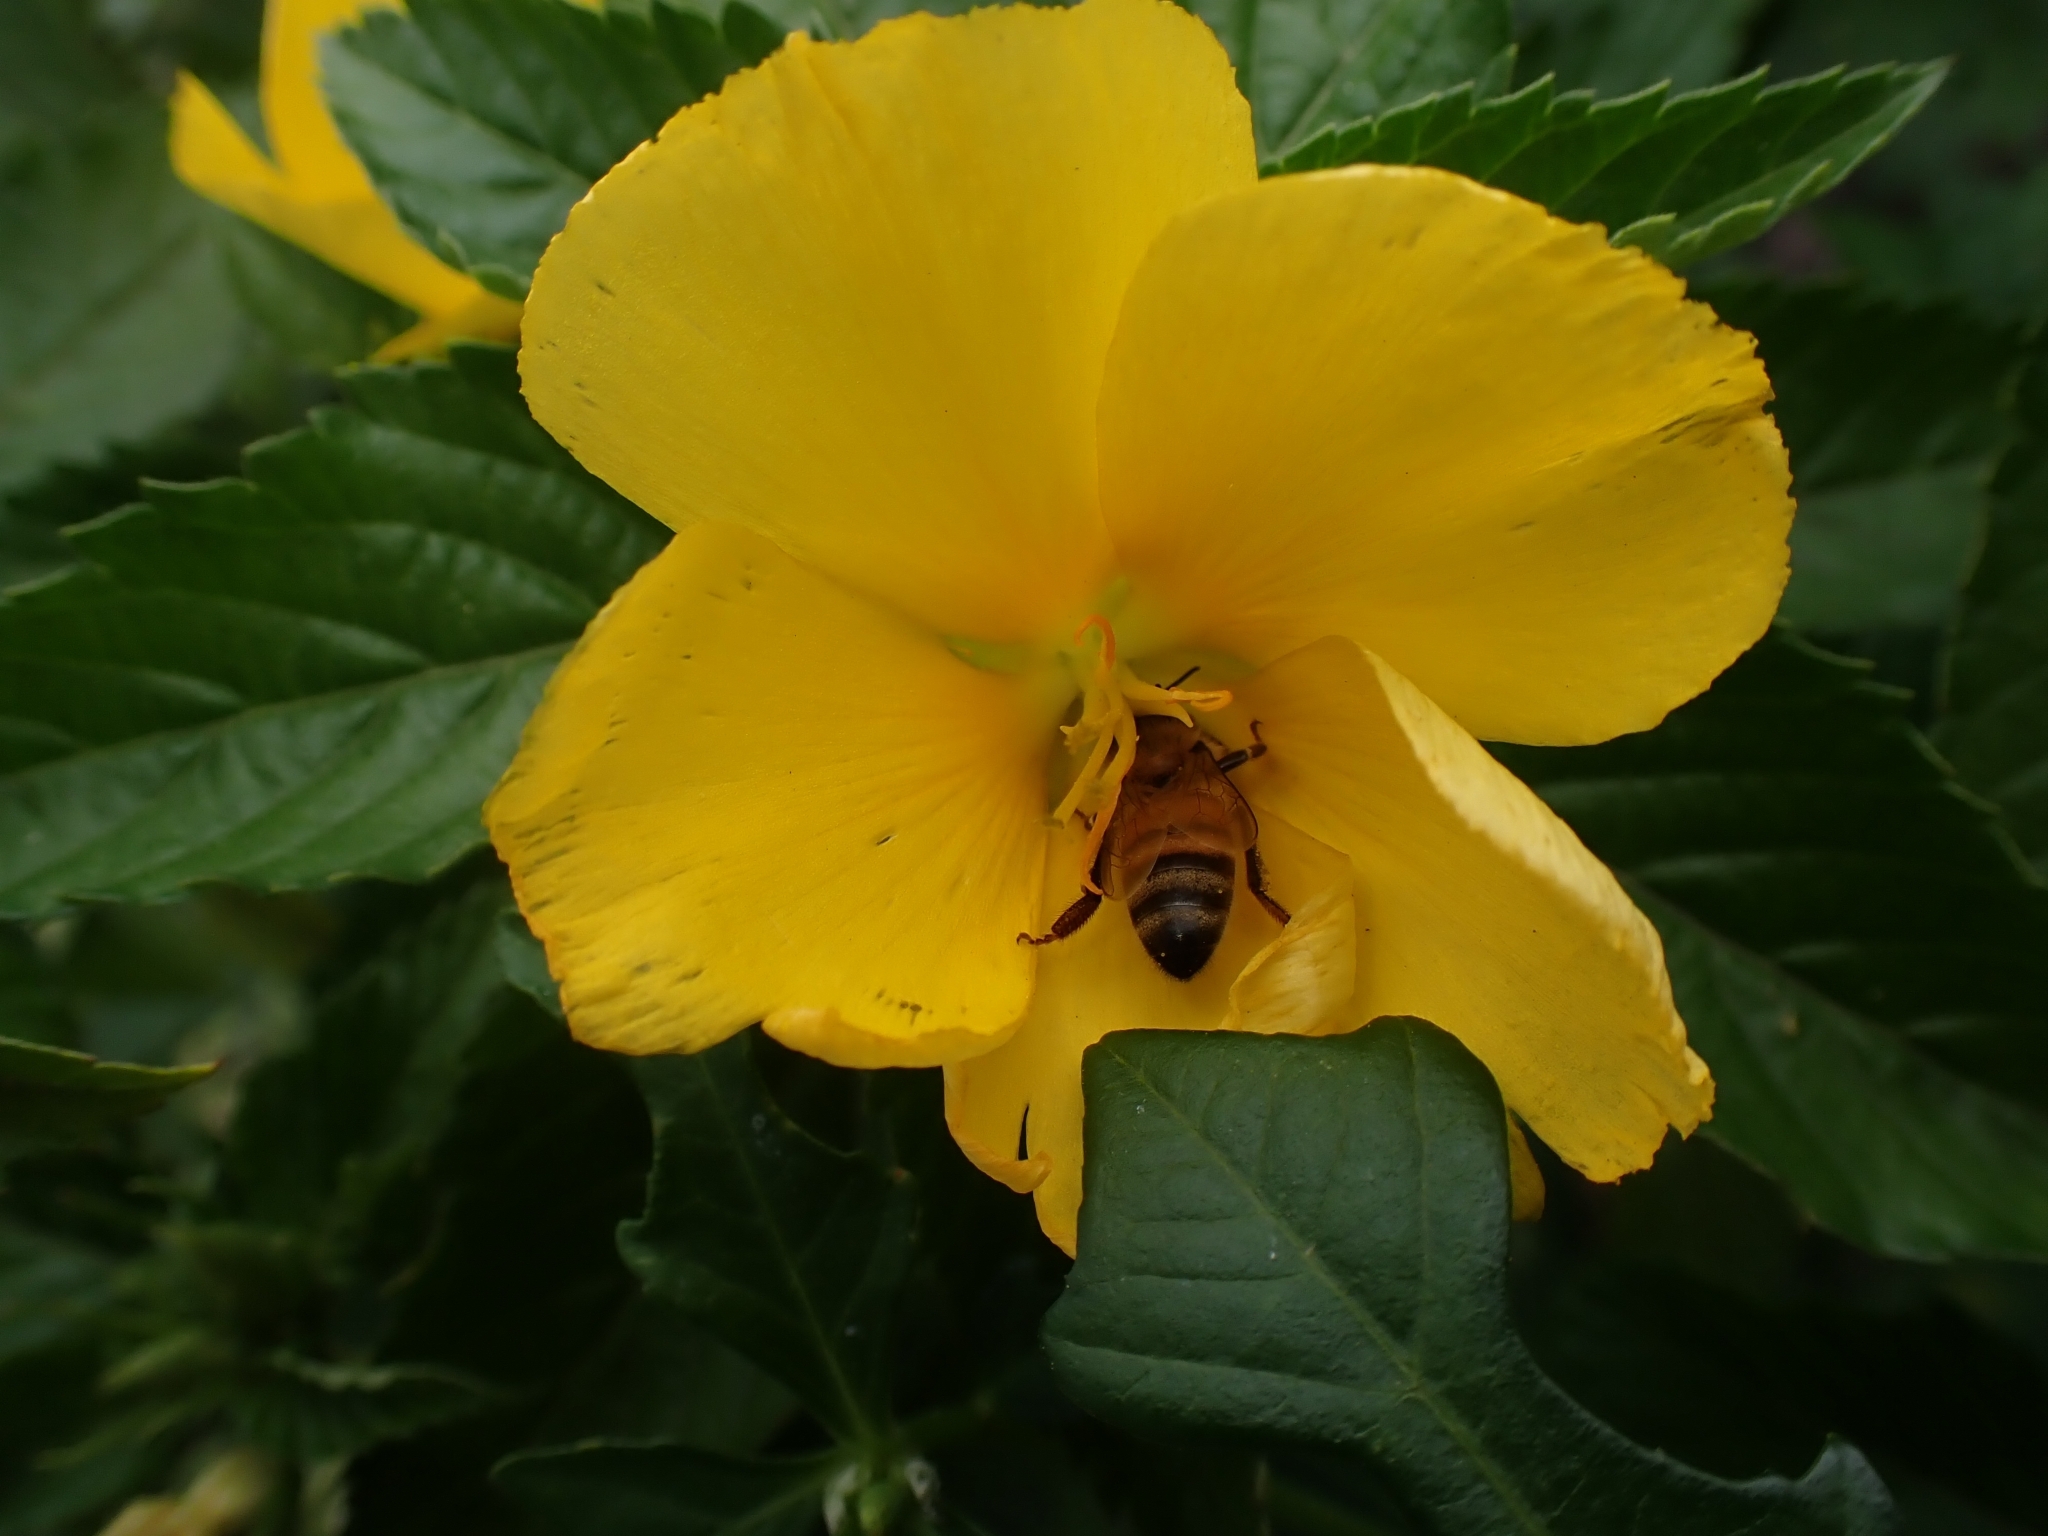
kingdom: Animalia
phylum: Arthropoda
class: Insecta
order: Hymenoptera
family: Apidae
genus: Apis
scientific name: Apis mellifera
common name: Honey bee
